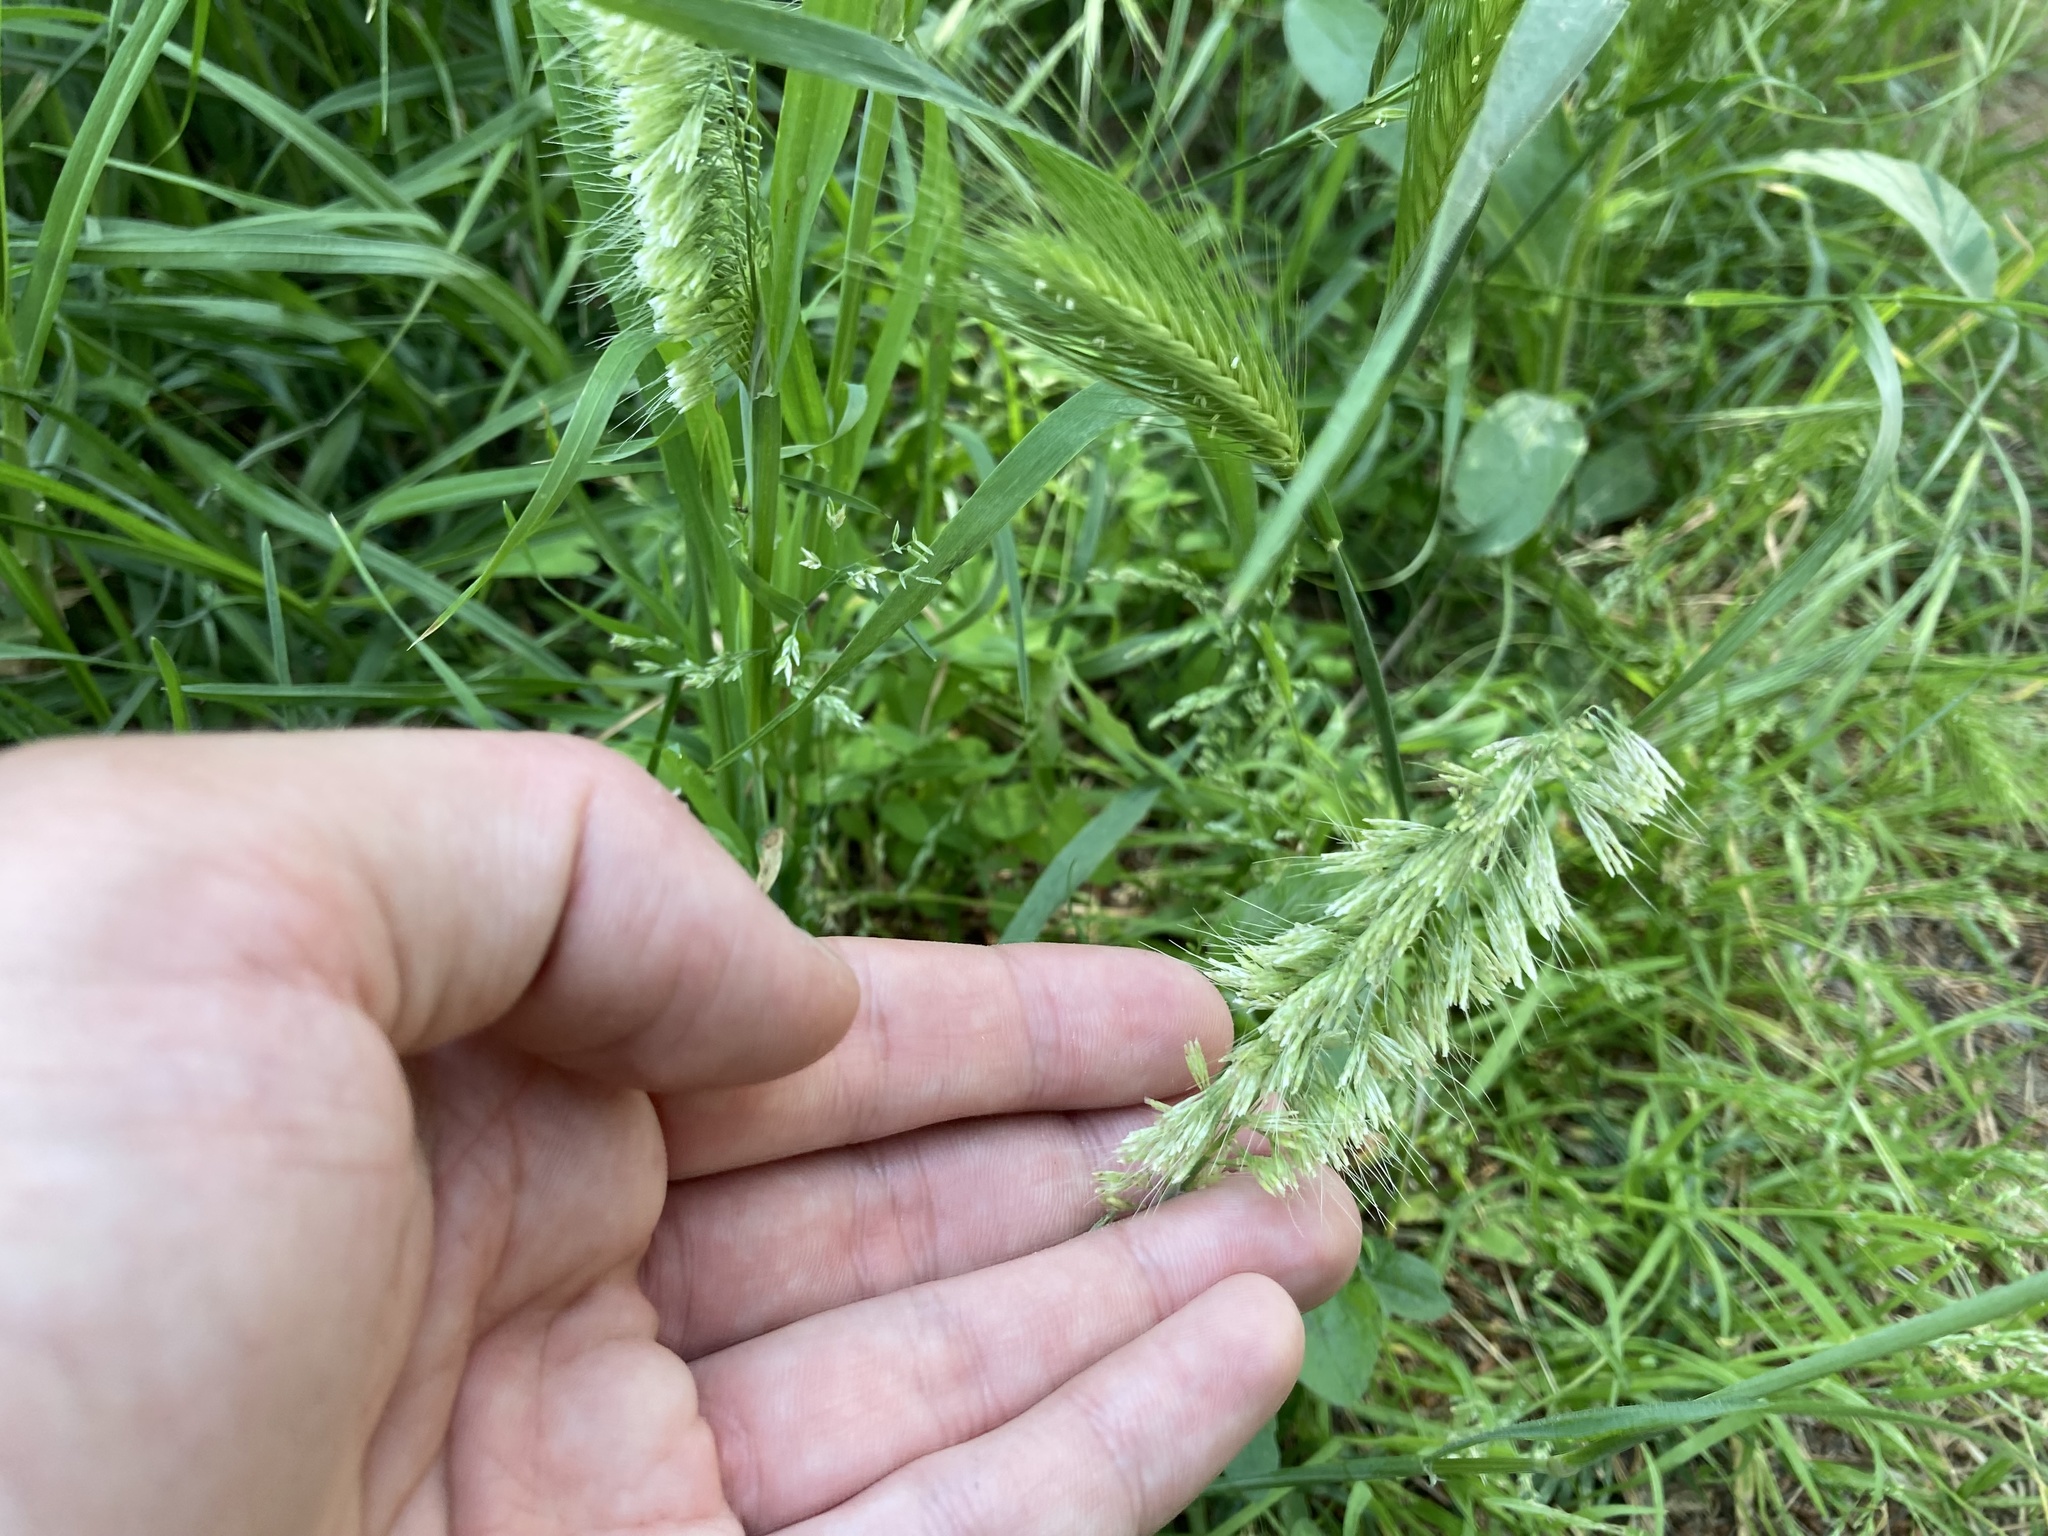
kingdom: Plantae
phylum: Tracheophyta
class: Liliopsida
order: Poales
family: Poaceae
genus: Lamarckia
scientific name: Lamarckia aurea
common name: Golden dog's-tail
